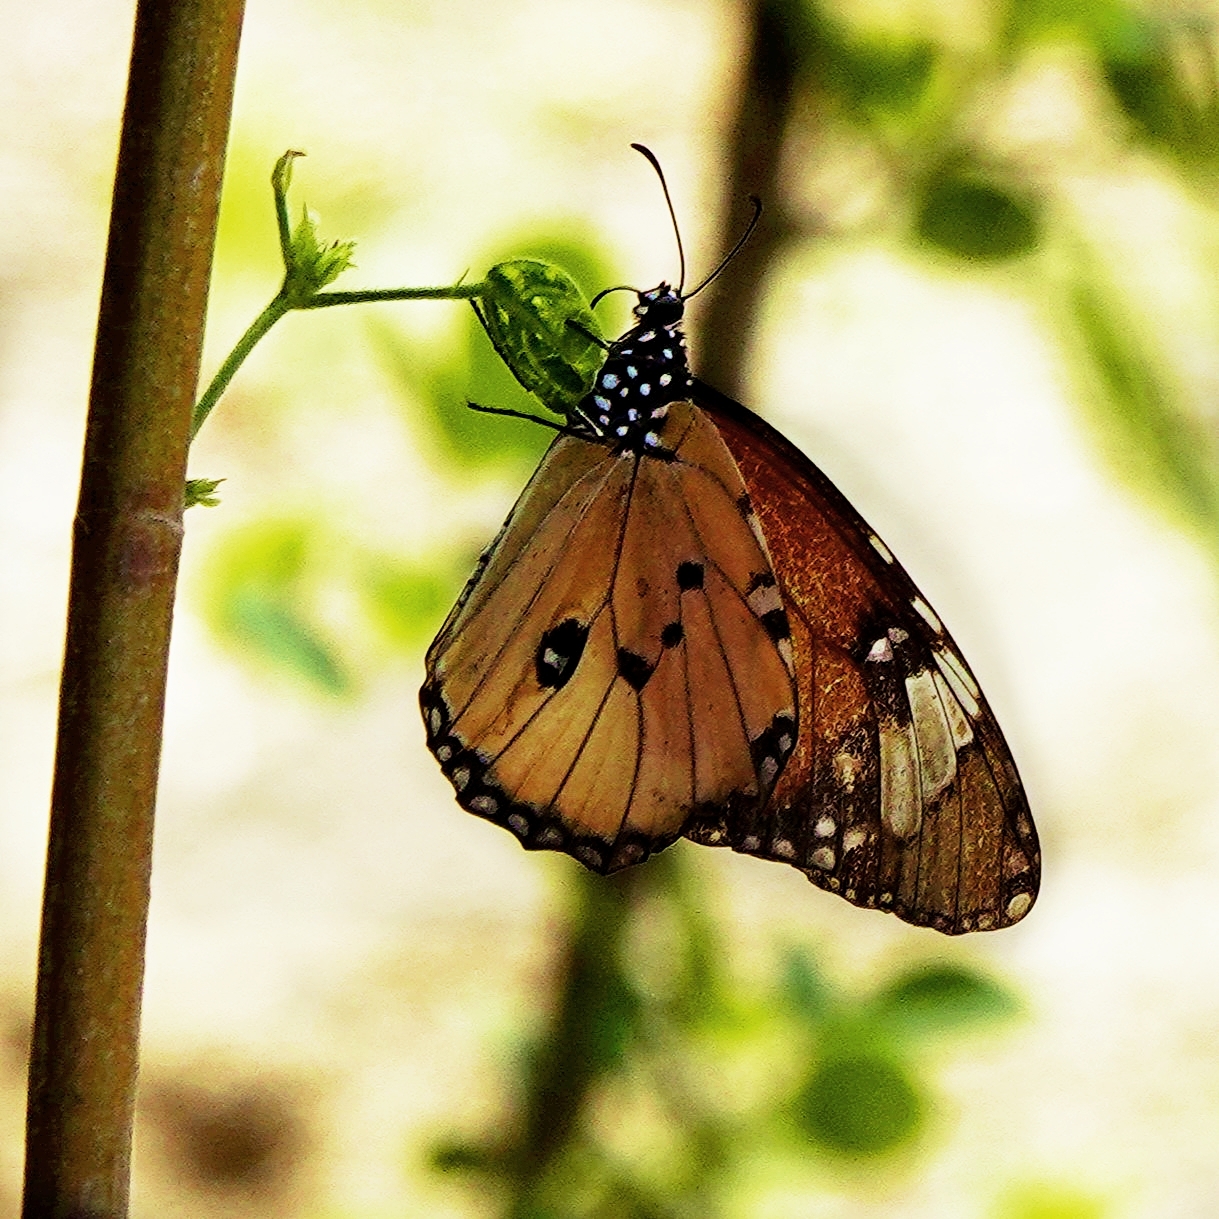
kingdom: Animalia
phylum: Arthropoda
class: Insecta
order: Lepidoptera
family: Nymphalidae
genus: Danaus
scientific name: Danaus chrysippus
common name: Plain tiger
